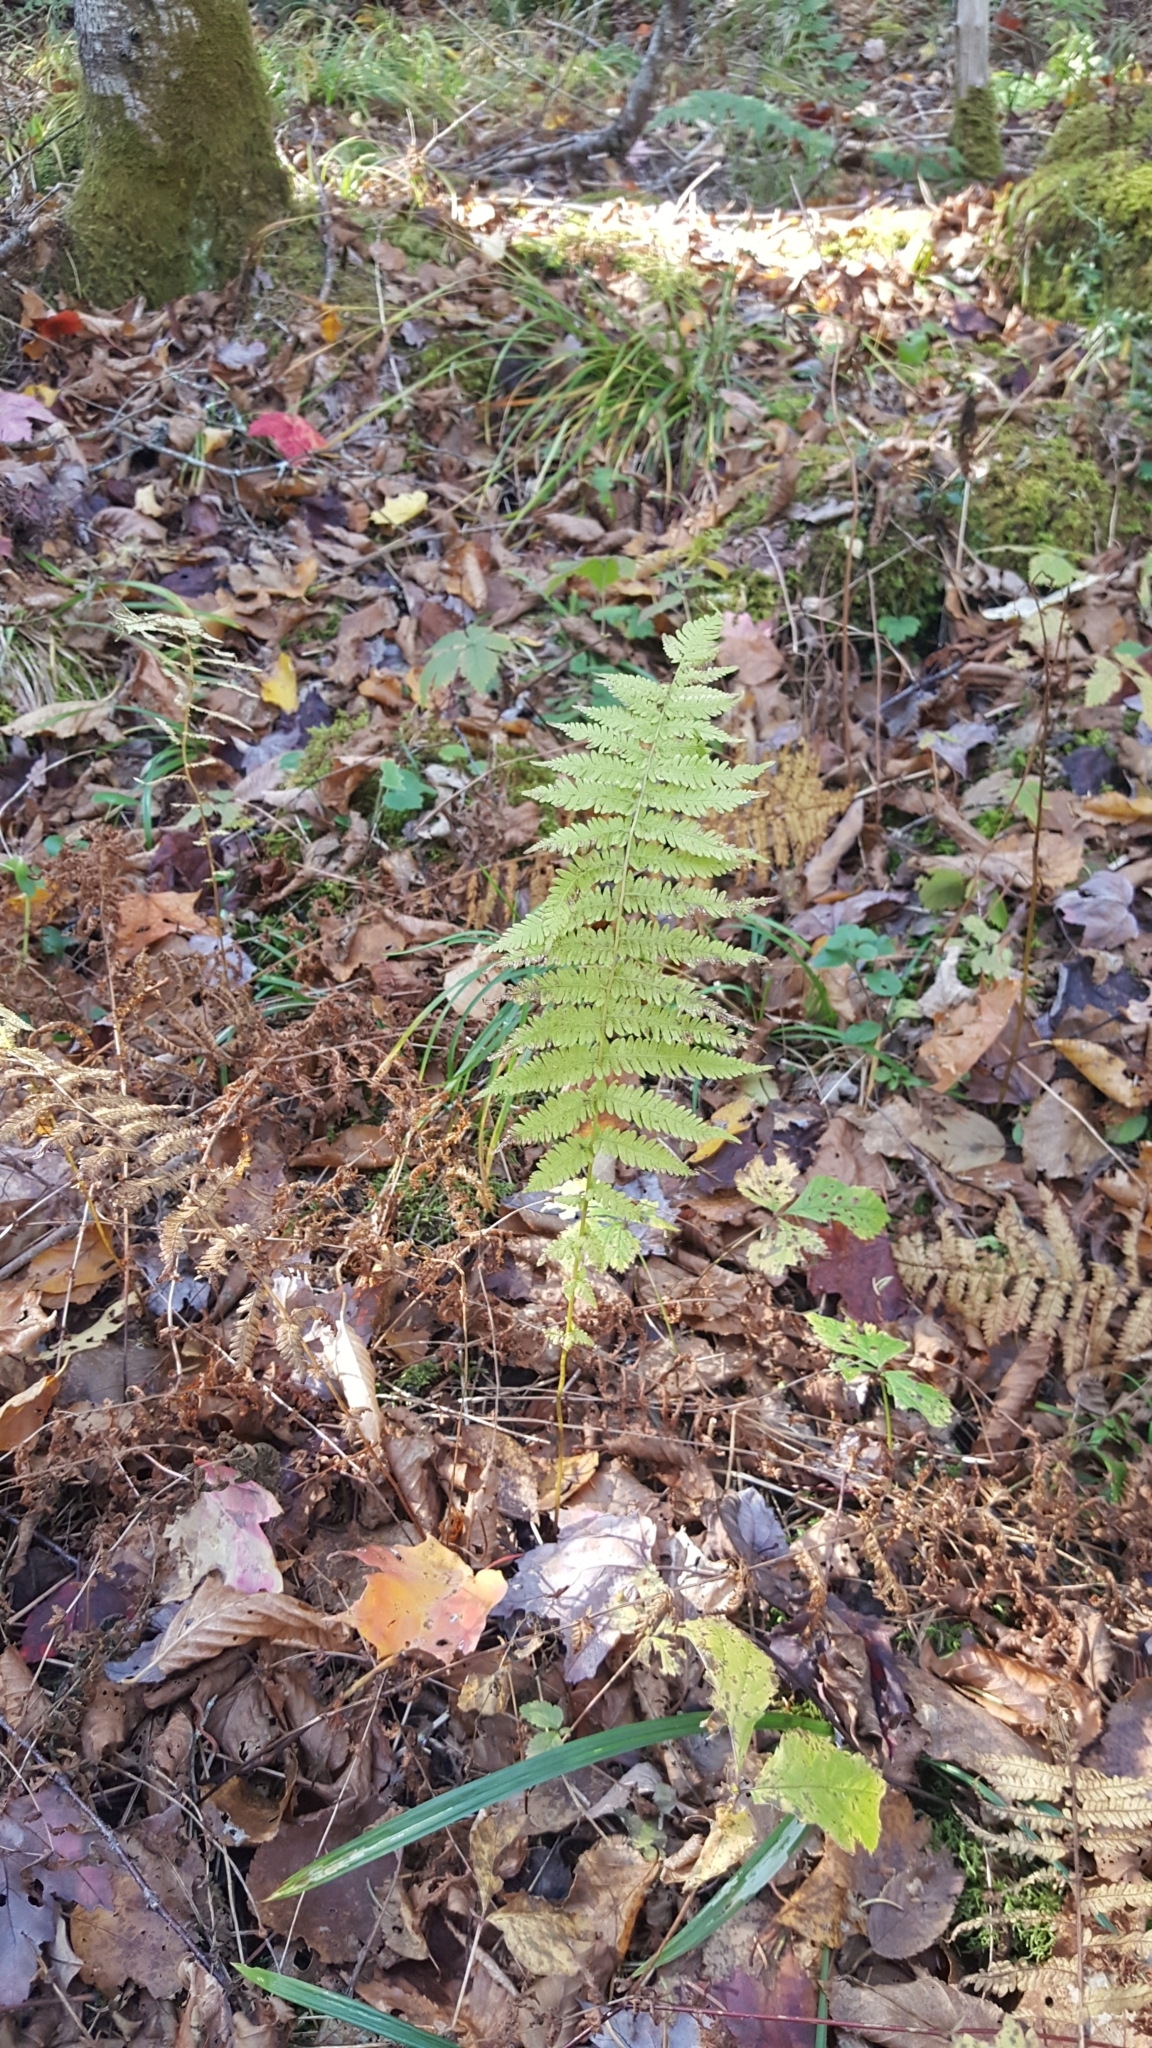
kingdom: Plantae
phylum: Tracheophyta
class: Polypodiopsida
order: Polypodiales
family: Thelypteridaceae
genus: Amauropelta
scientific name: Amauropelta noveboracensis
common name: New york fern
